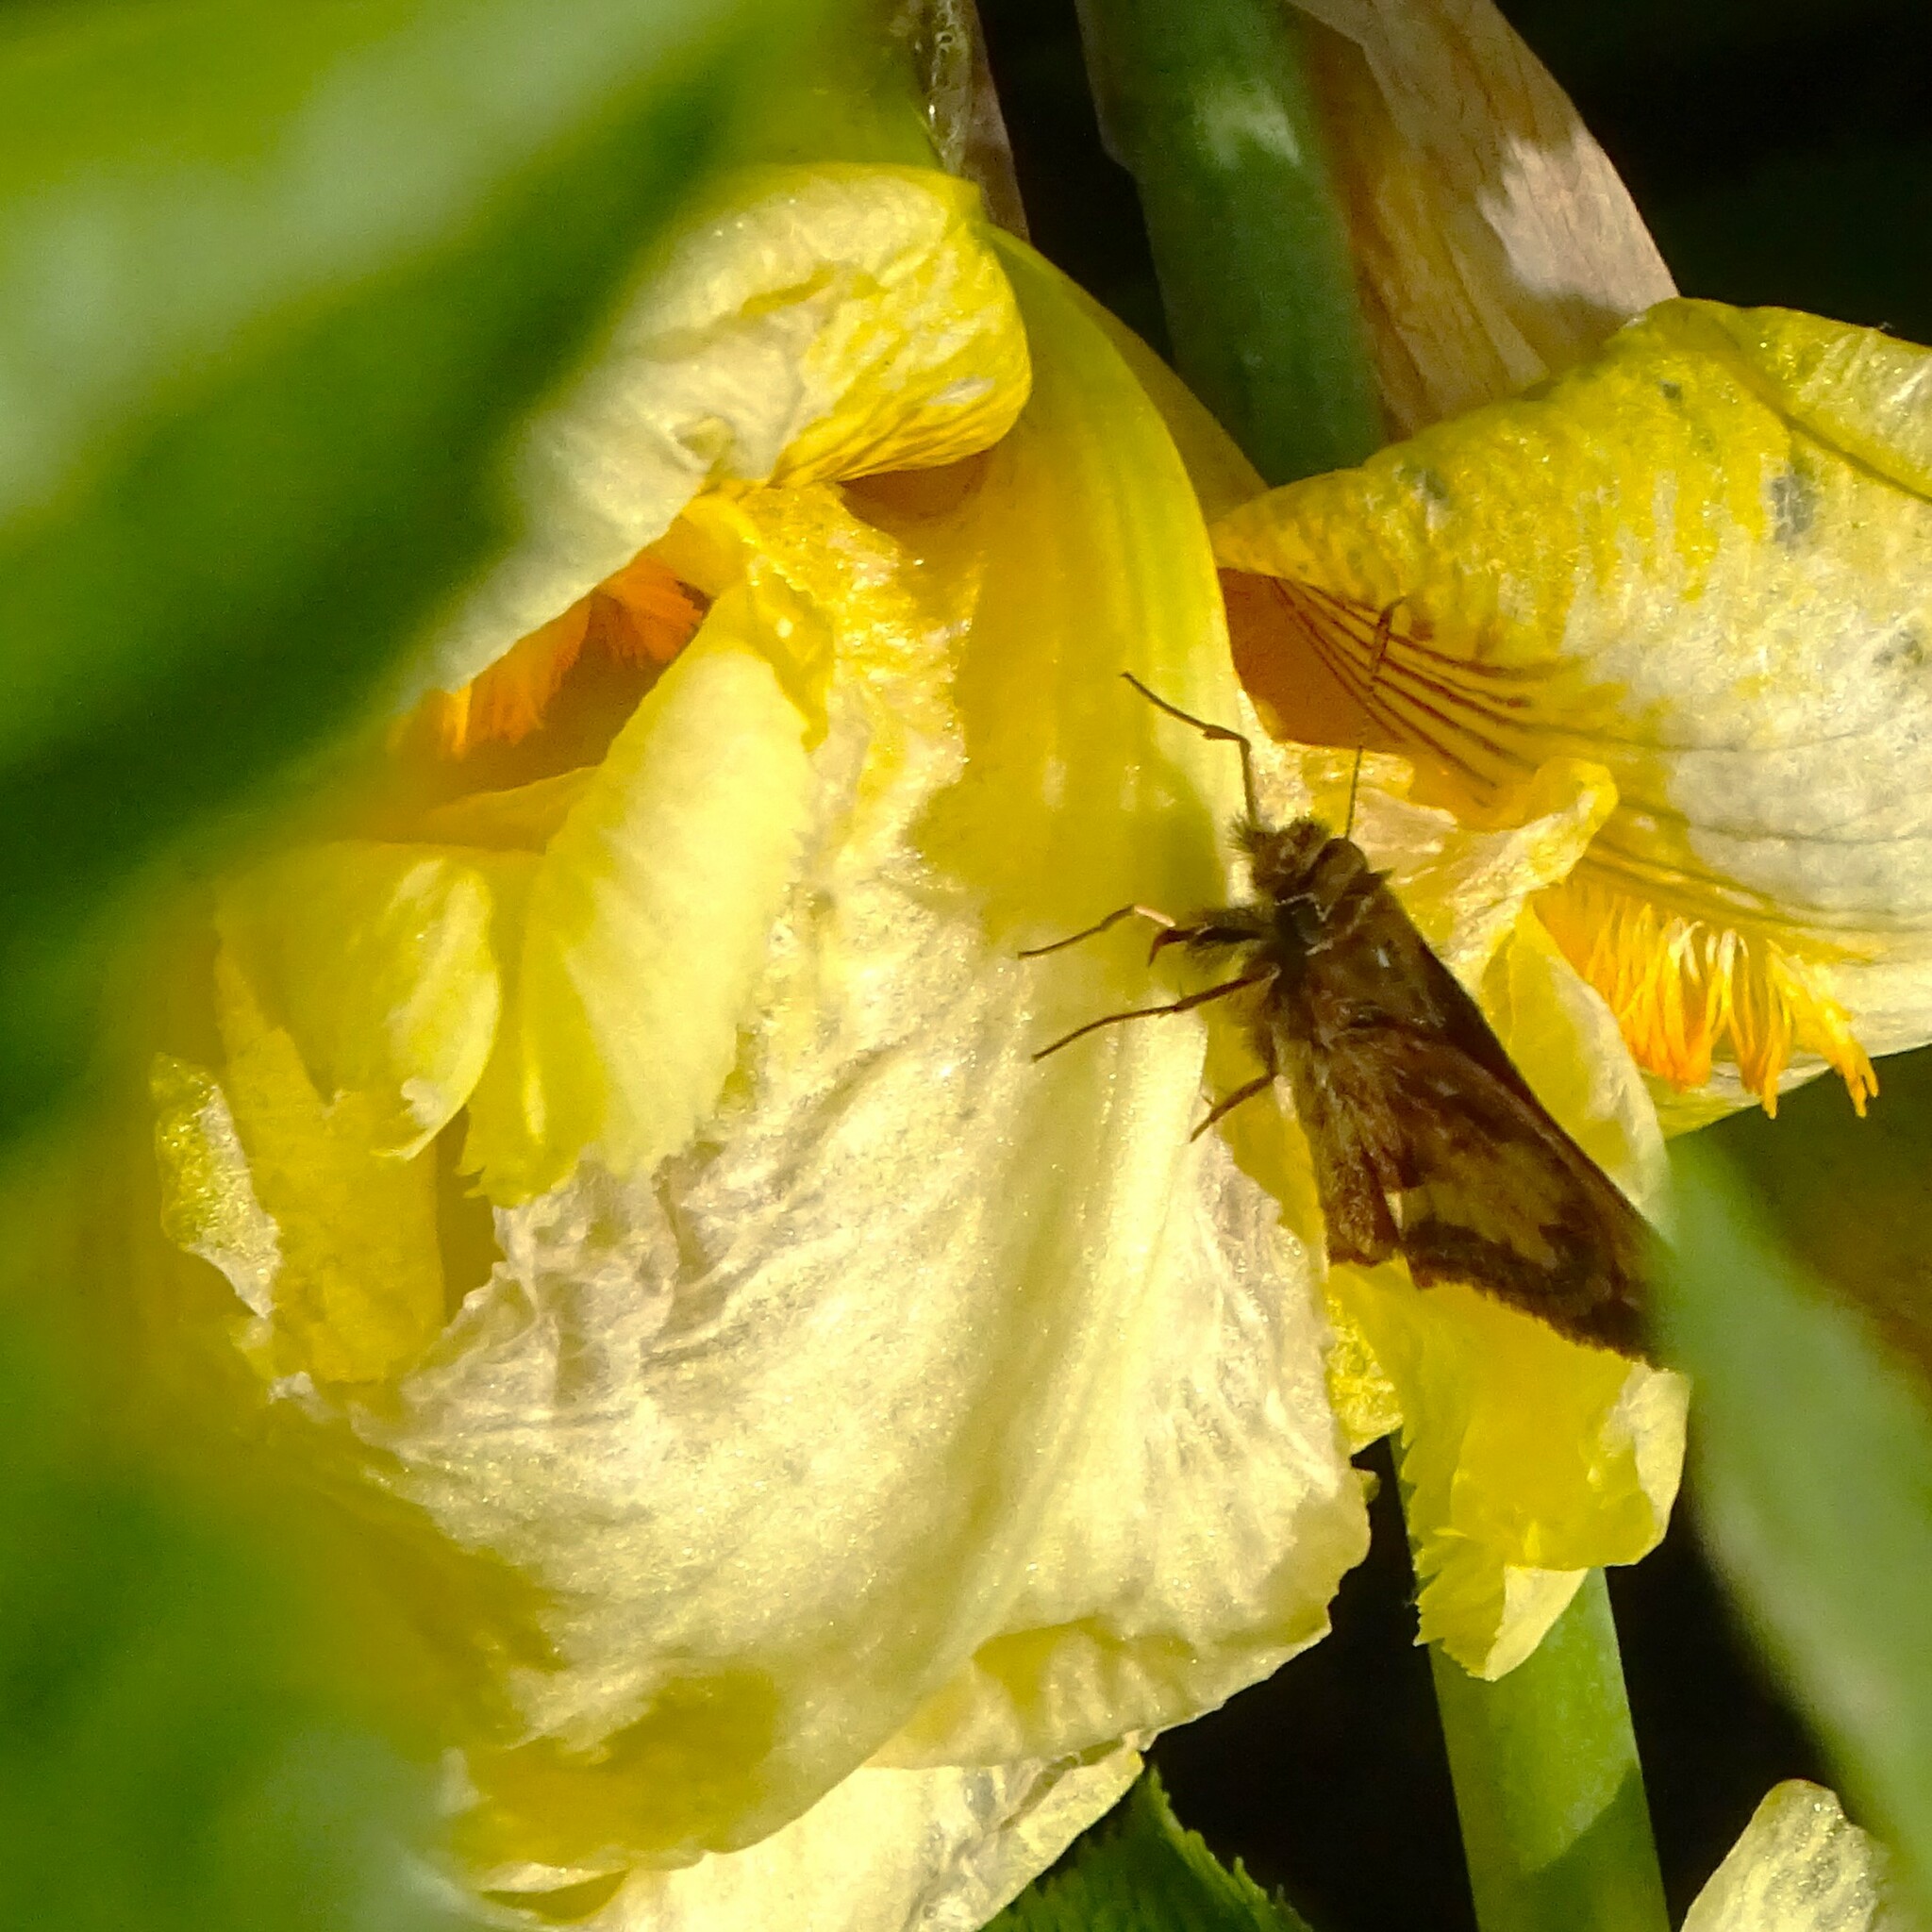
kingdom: Animalia
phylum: Arthropoda
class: Insecta
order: Lepidoptera
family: Hesperiidae
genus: Lon
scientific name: Lon hobomok
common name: Hobomok skipper
